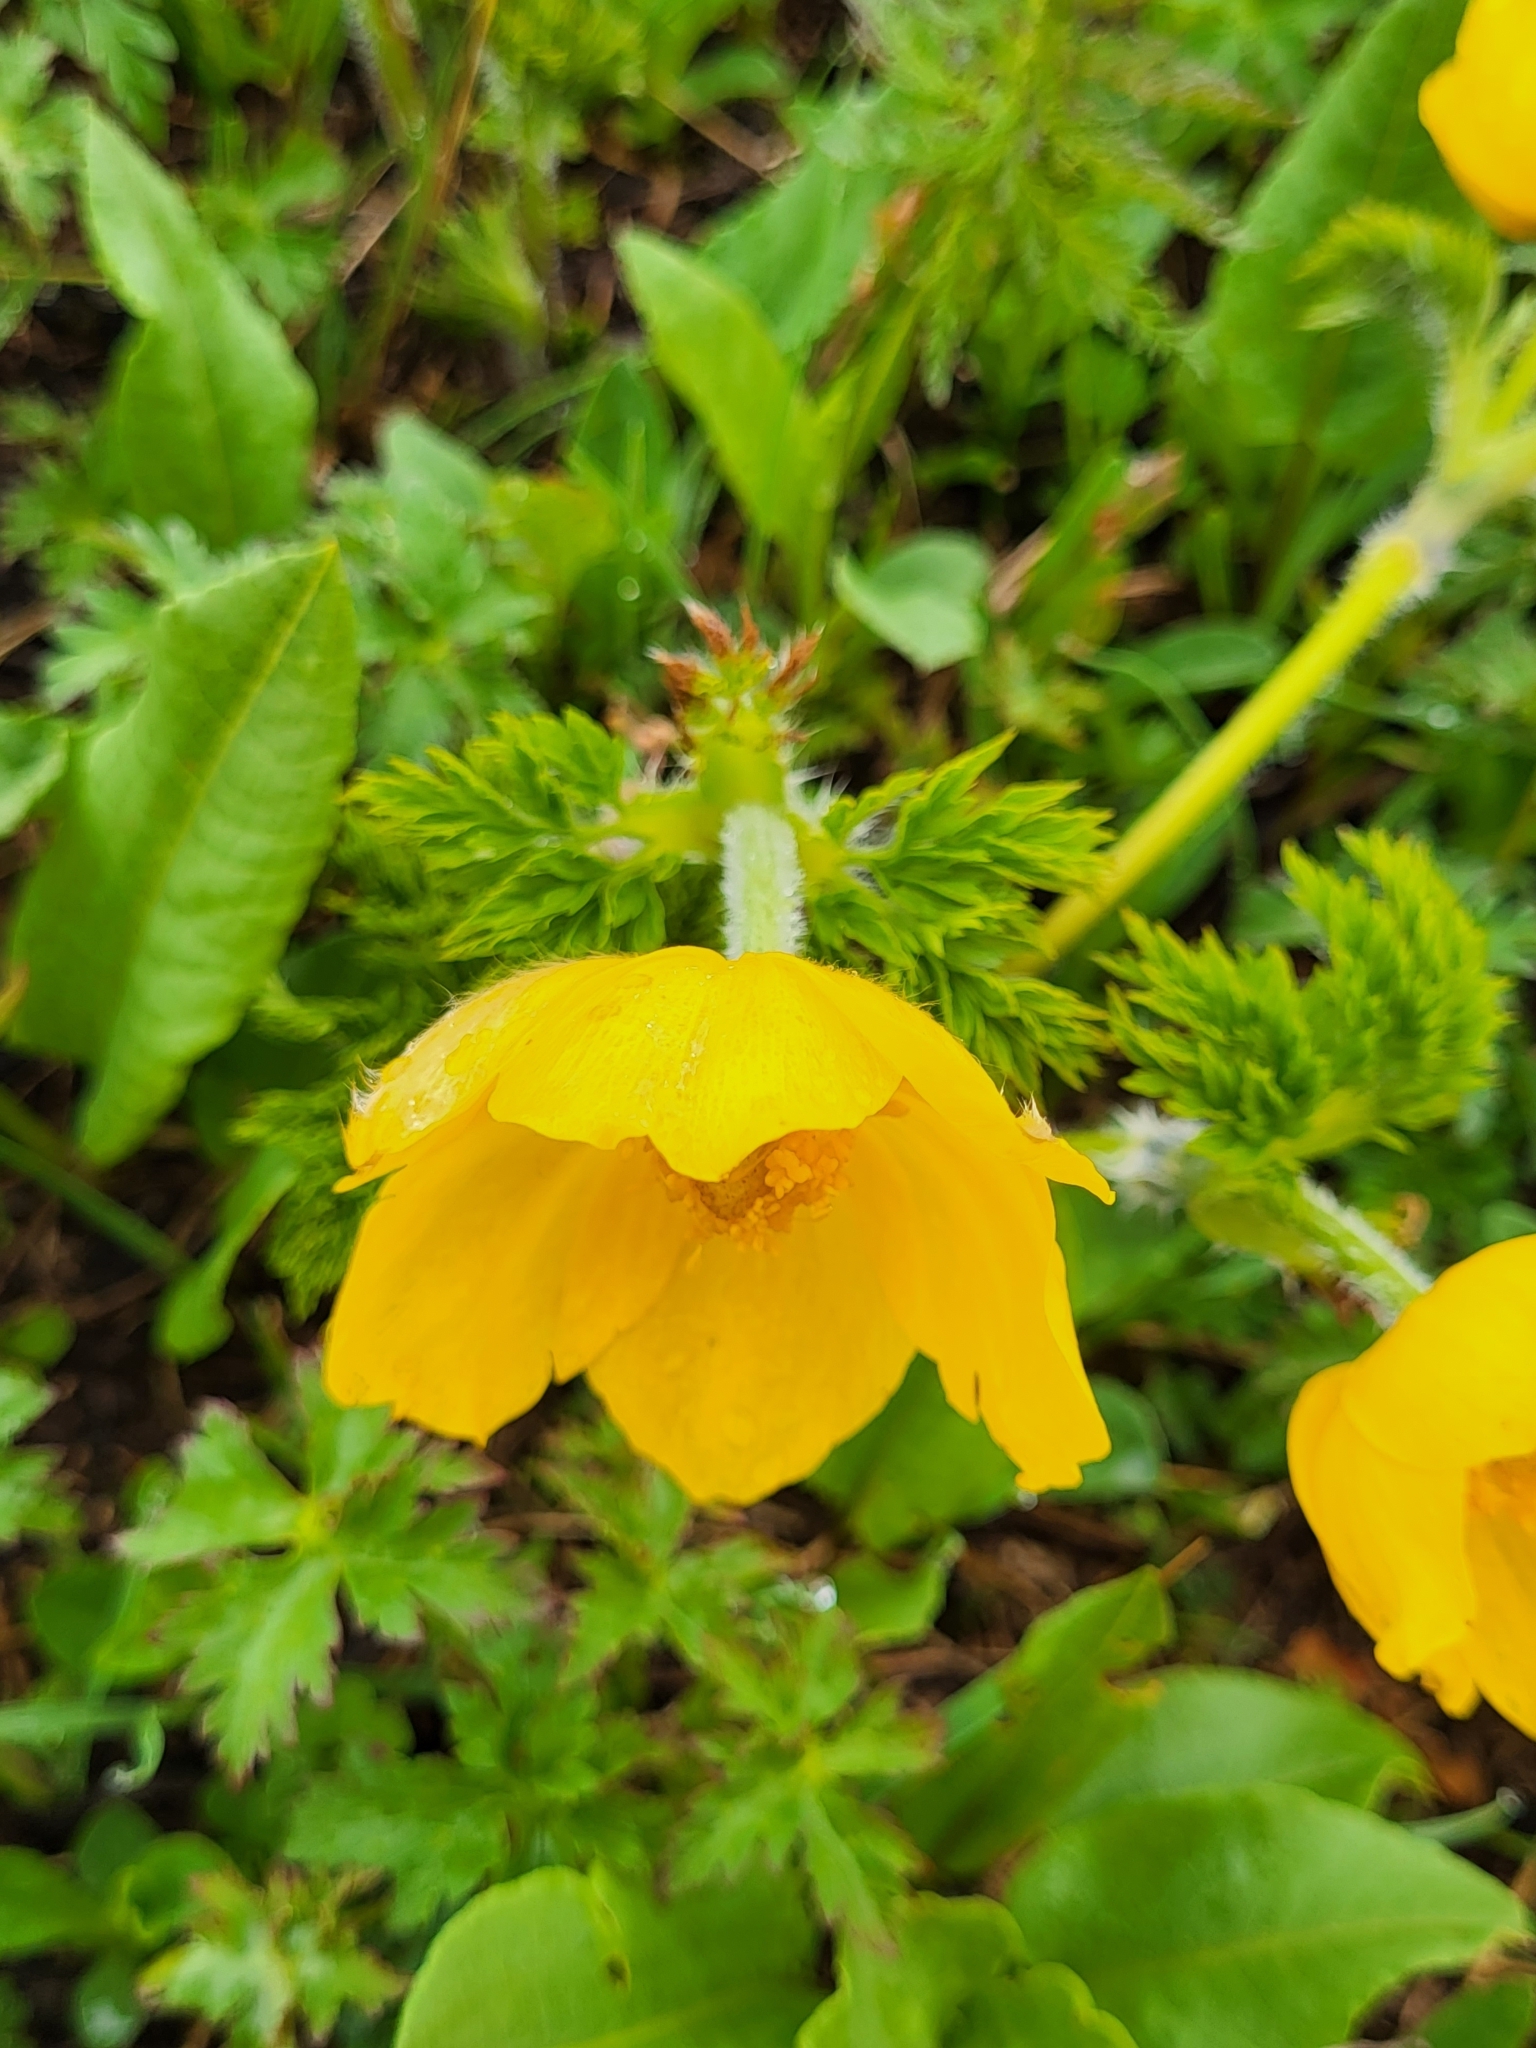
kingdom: Plantae
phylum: Tracheophyta
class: Magnoliopsida
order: Ranunculales
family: Ranunculaceae
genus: Pulsatilla
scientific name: Pulsatilla aurea
